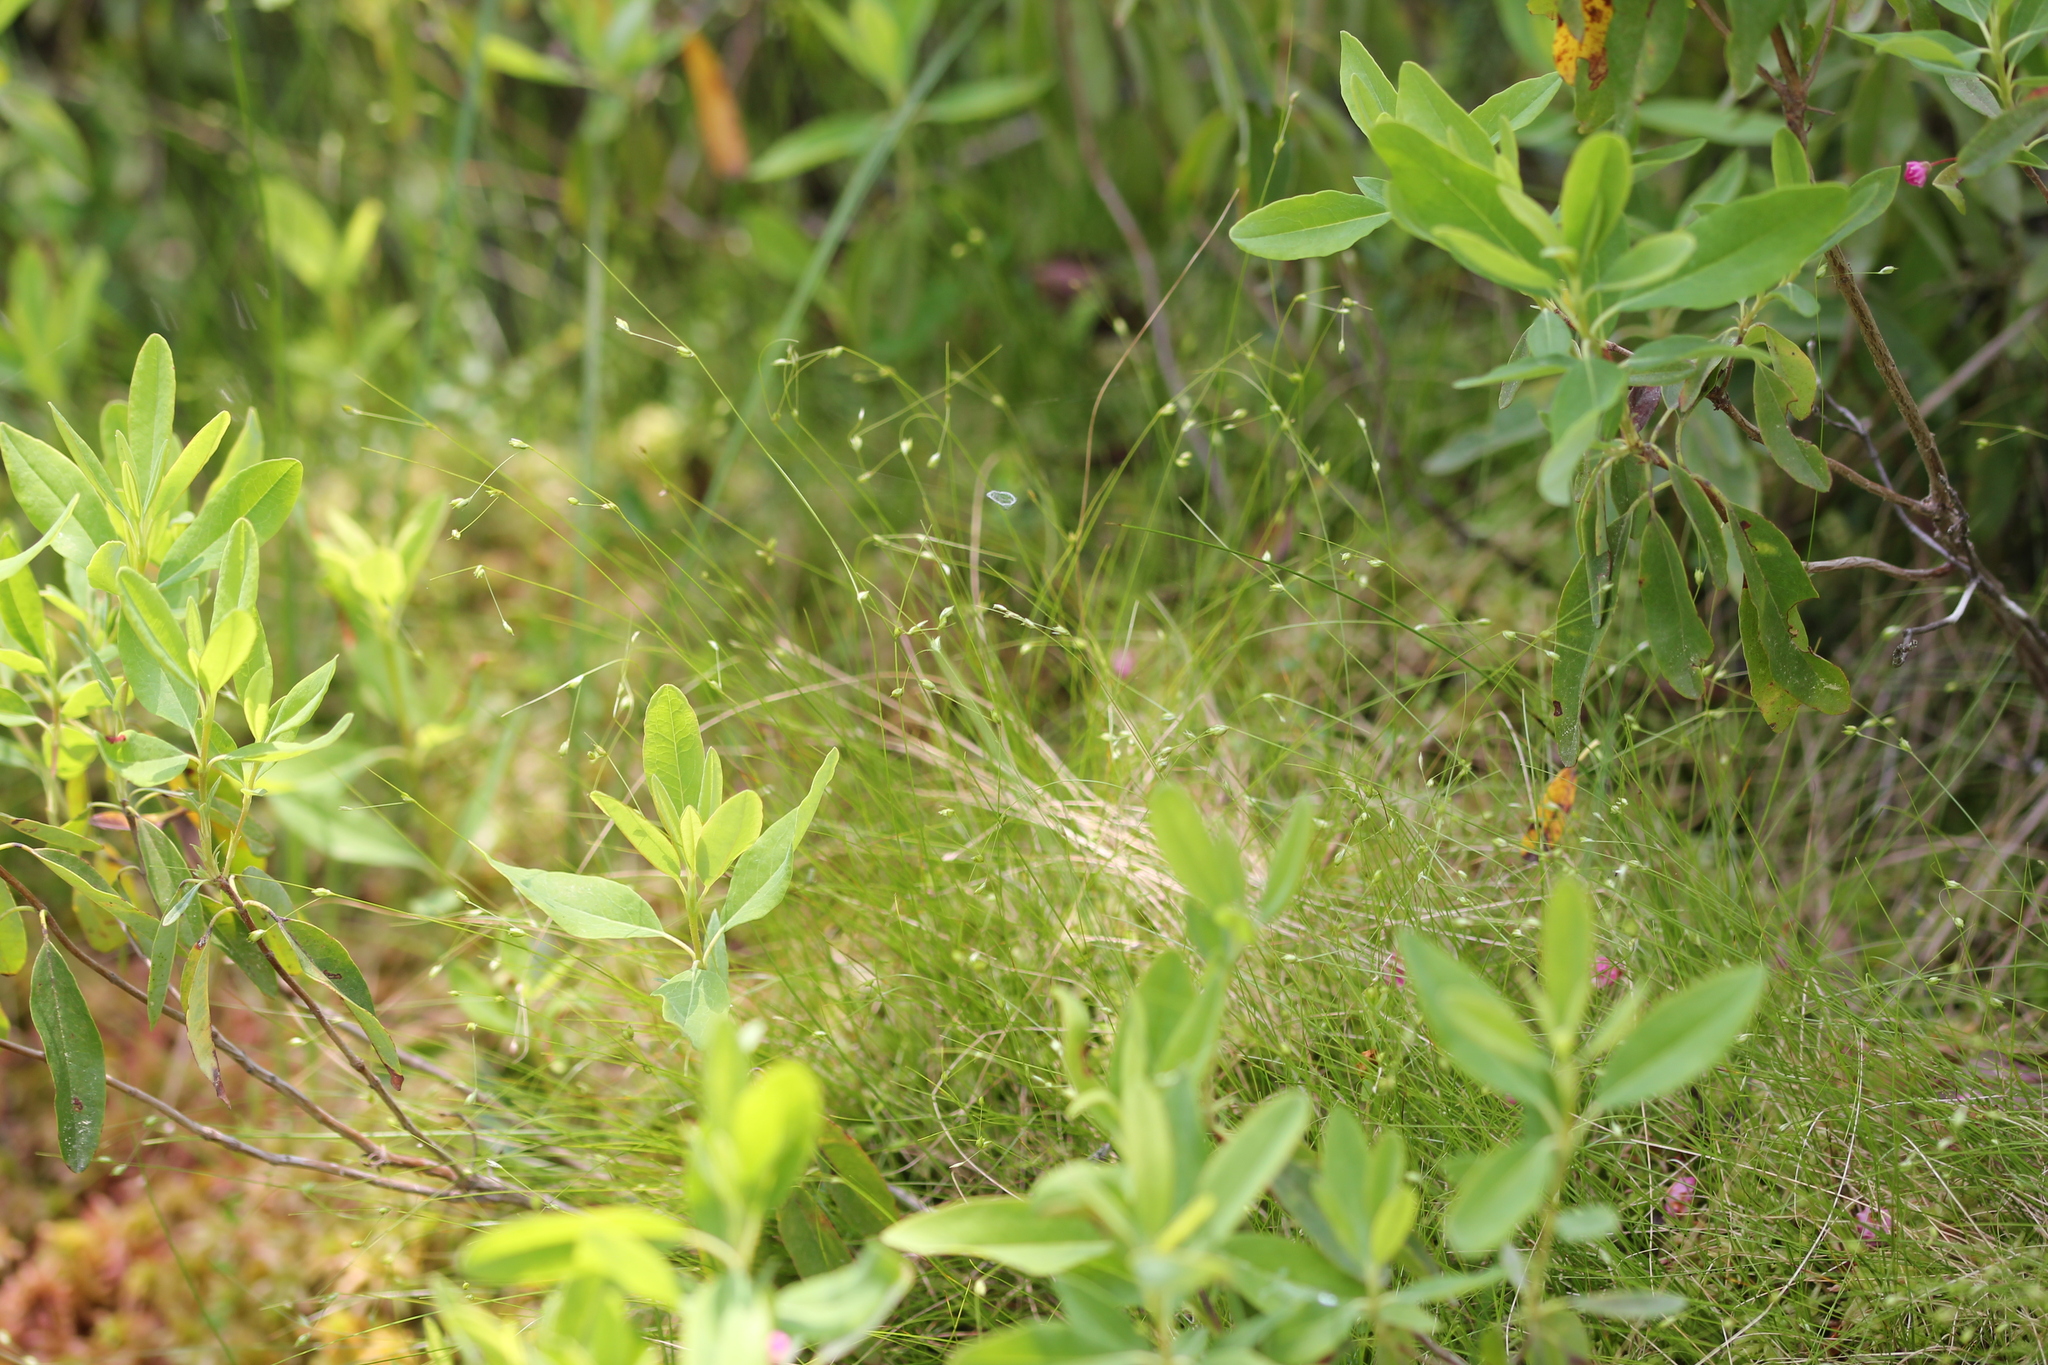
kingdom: Plantae
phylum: Tracheophyta
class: Liliopsida
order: Poales
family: Cyperaceae
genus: Carex
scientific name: Carex trisperma
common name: Three-seeded sedge
